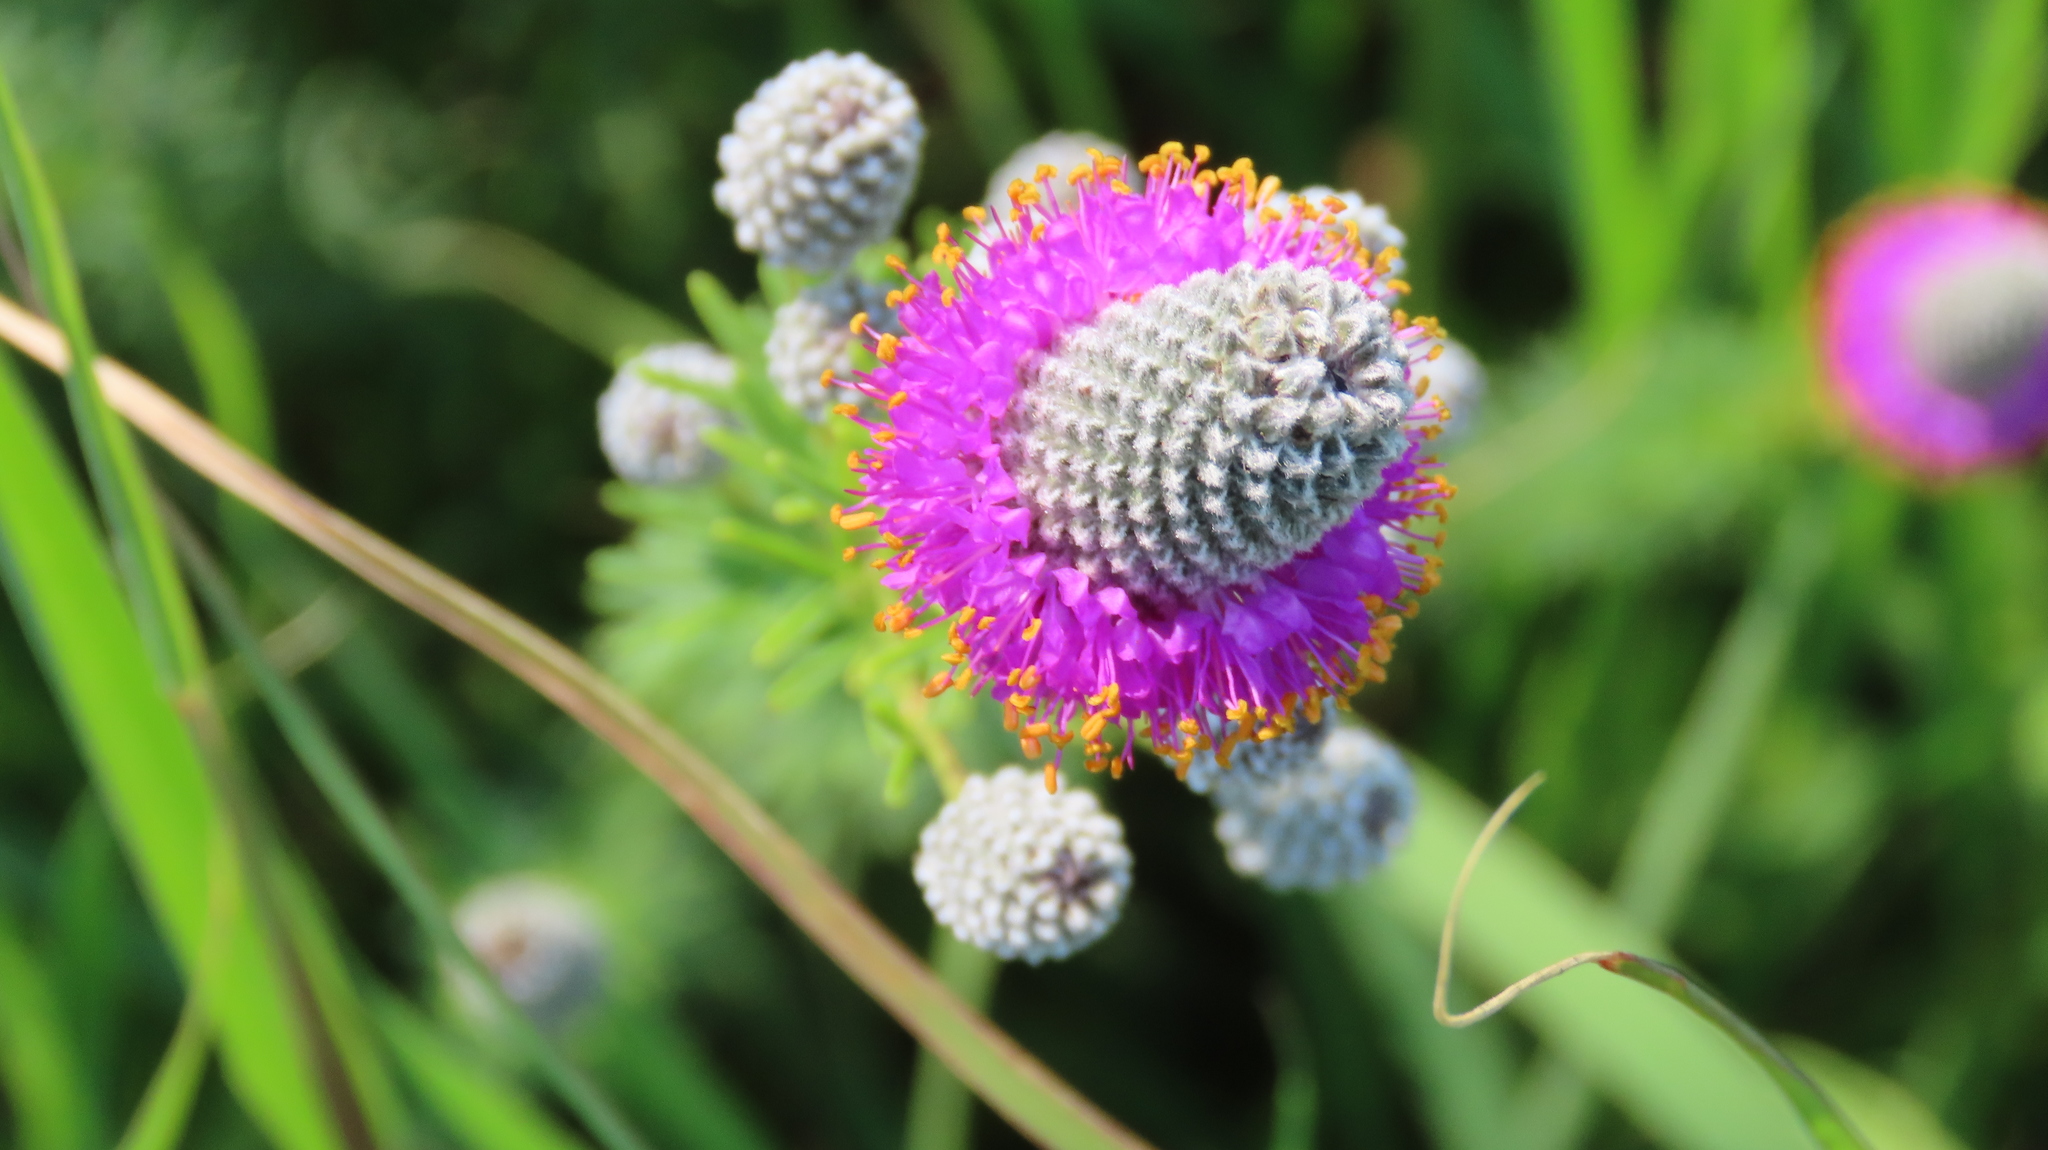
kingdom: Plantae
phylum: Tracheophyta
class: Magnoliopsida
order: Fabales
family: Fabaceae
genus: Dalea
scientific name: Dalea purpurea
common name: Purple prairie-clover
